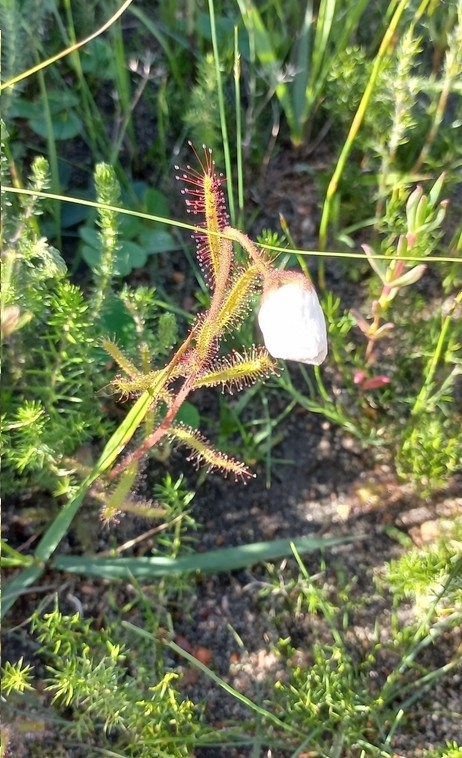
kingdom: Plantae
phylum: Tracheophyta
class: Magnoliopsida
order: Caryophyllales
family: Droseraceae
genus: Drosera
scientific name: Drosera cistiflora
